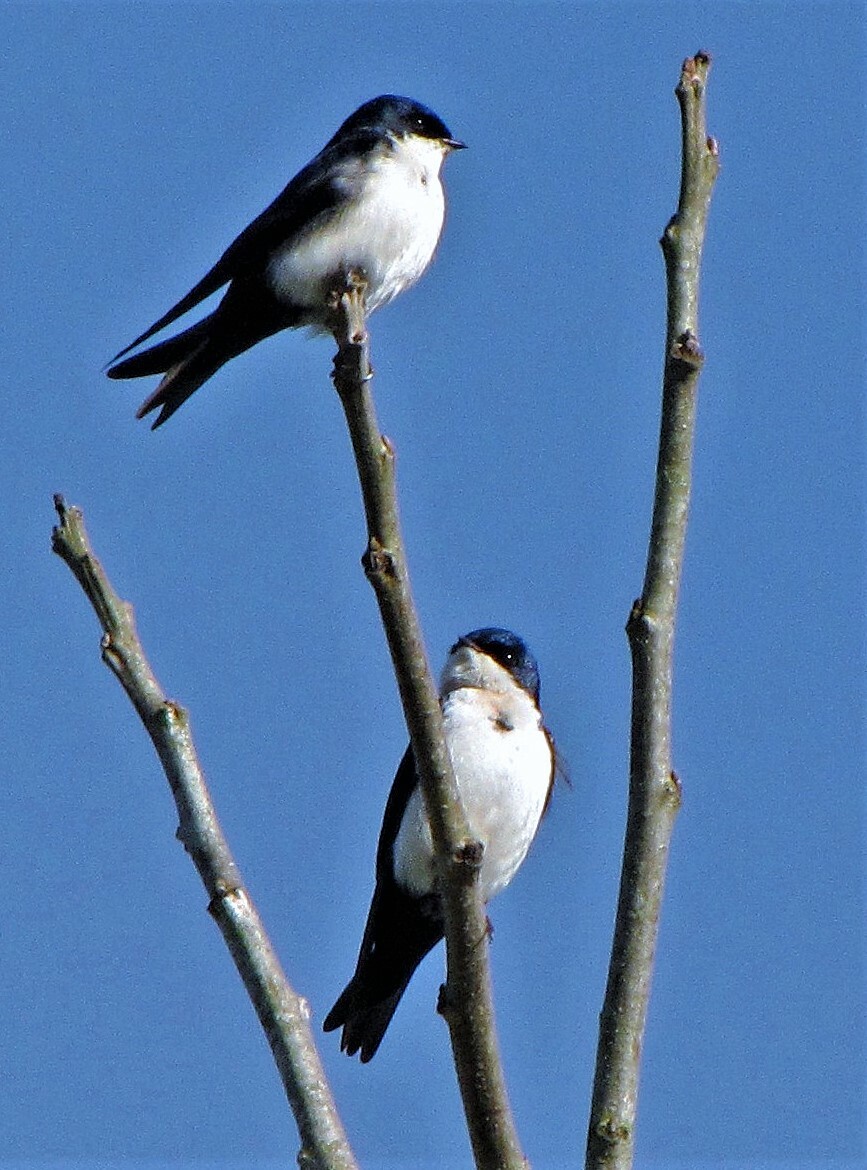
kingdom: Animalia
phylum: Chordata
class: Aves
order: Passeriformes
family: Hirundinidae
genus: Notiochelidon
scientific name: Notiochelidon cyanoleuca
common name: Blue-and-white swallow
